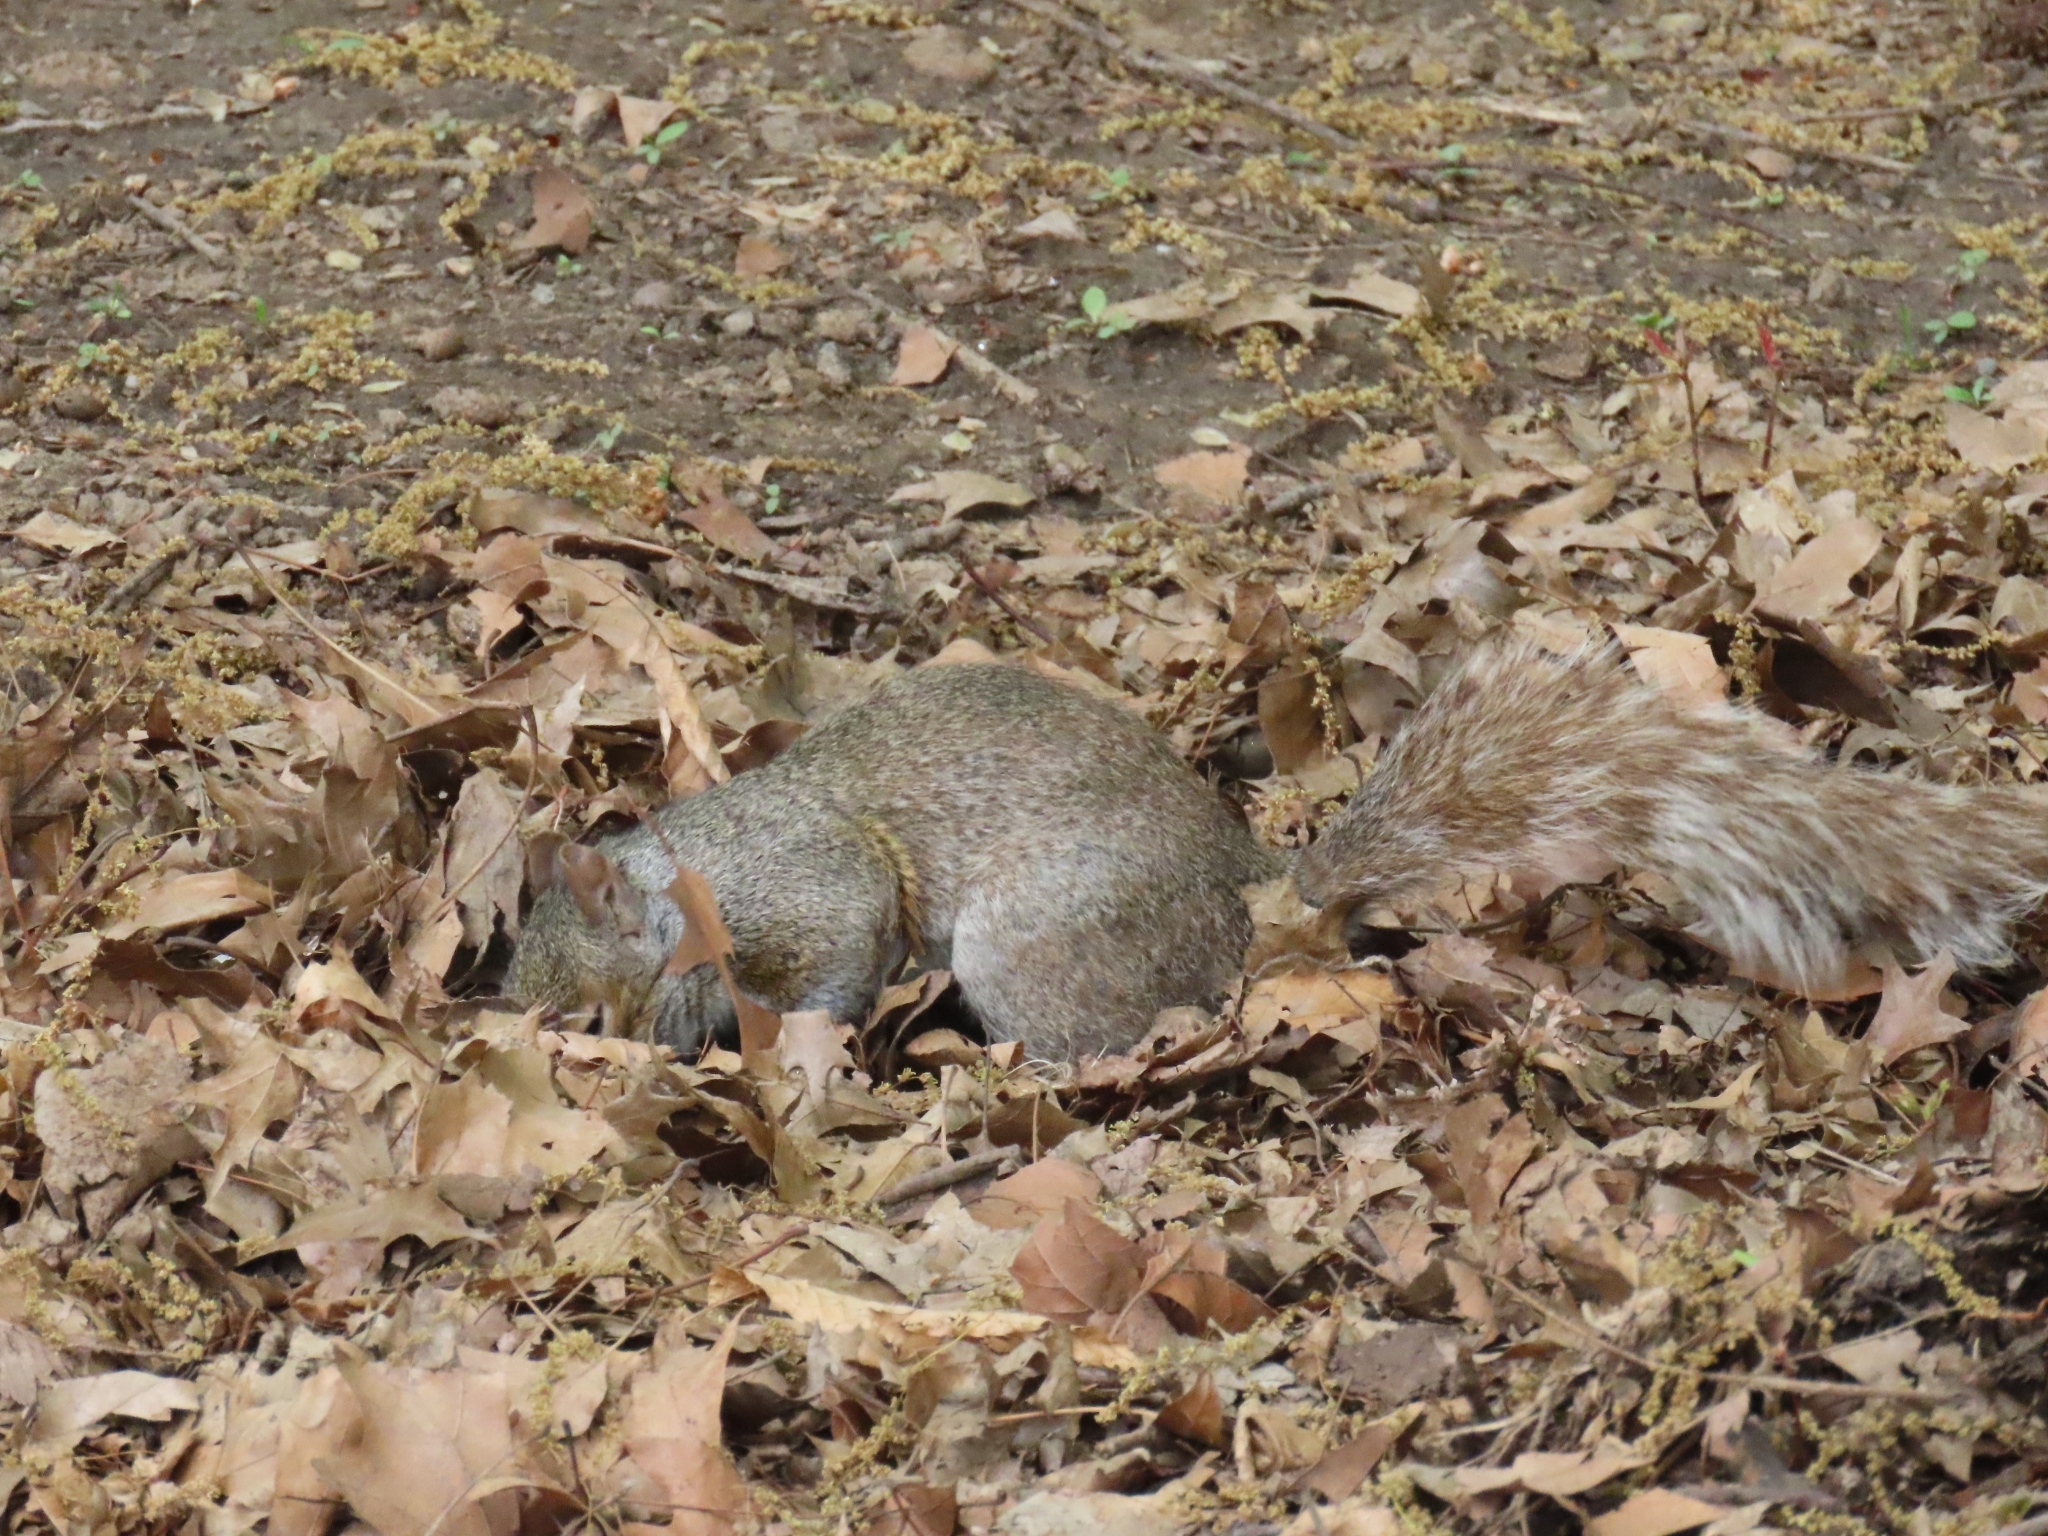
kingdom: Animalia
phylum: Chordata
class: Mammalia
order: Rodentia
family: Sciuridae
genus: Sciurus
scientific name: Sciurus carolinensis
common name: Eastern gray squirrel
